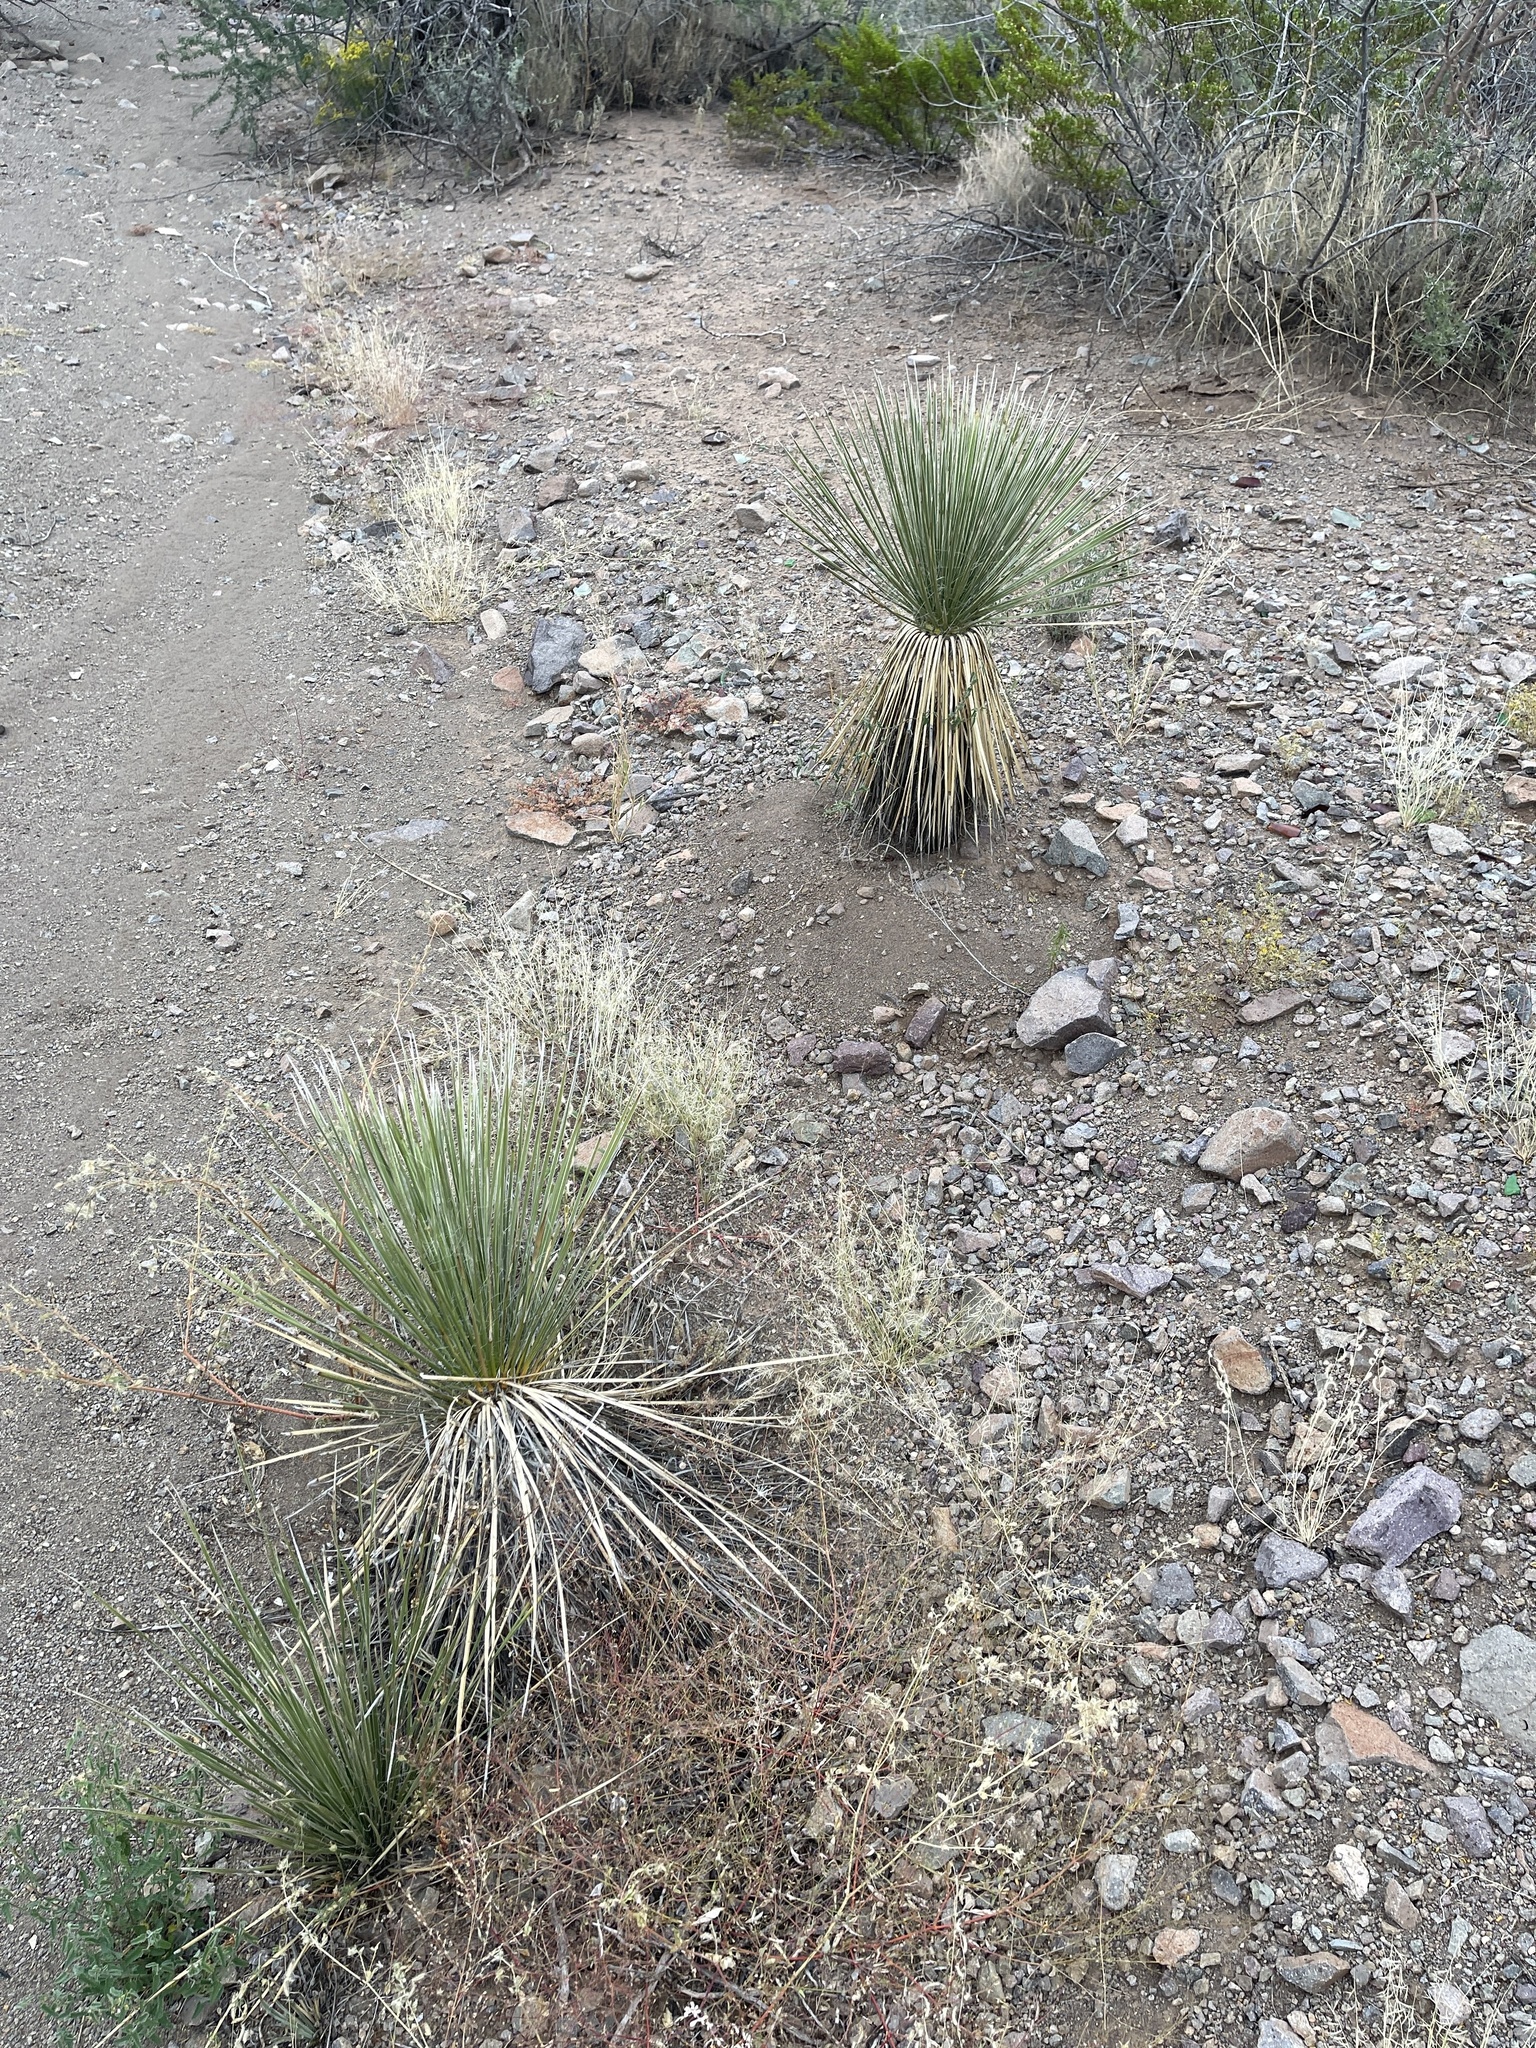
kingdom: Plantae
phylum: Tracheophyta
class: Liliopsida
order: Asparagales
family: Asparagaceae
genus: Yucca
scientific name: Yucca elata
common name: Palmella
